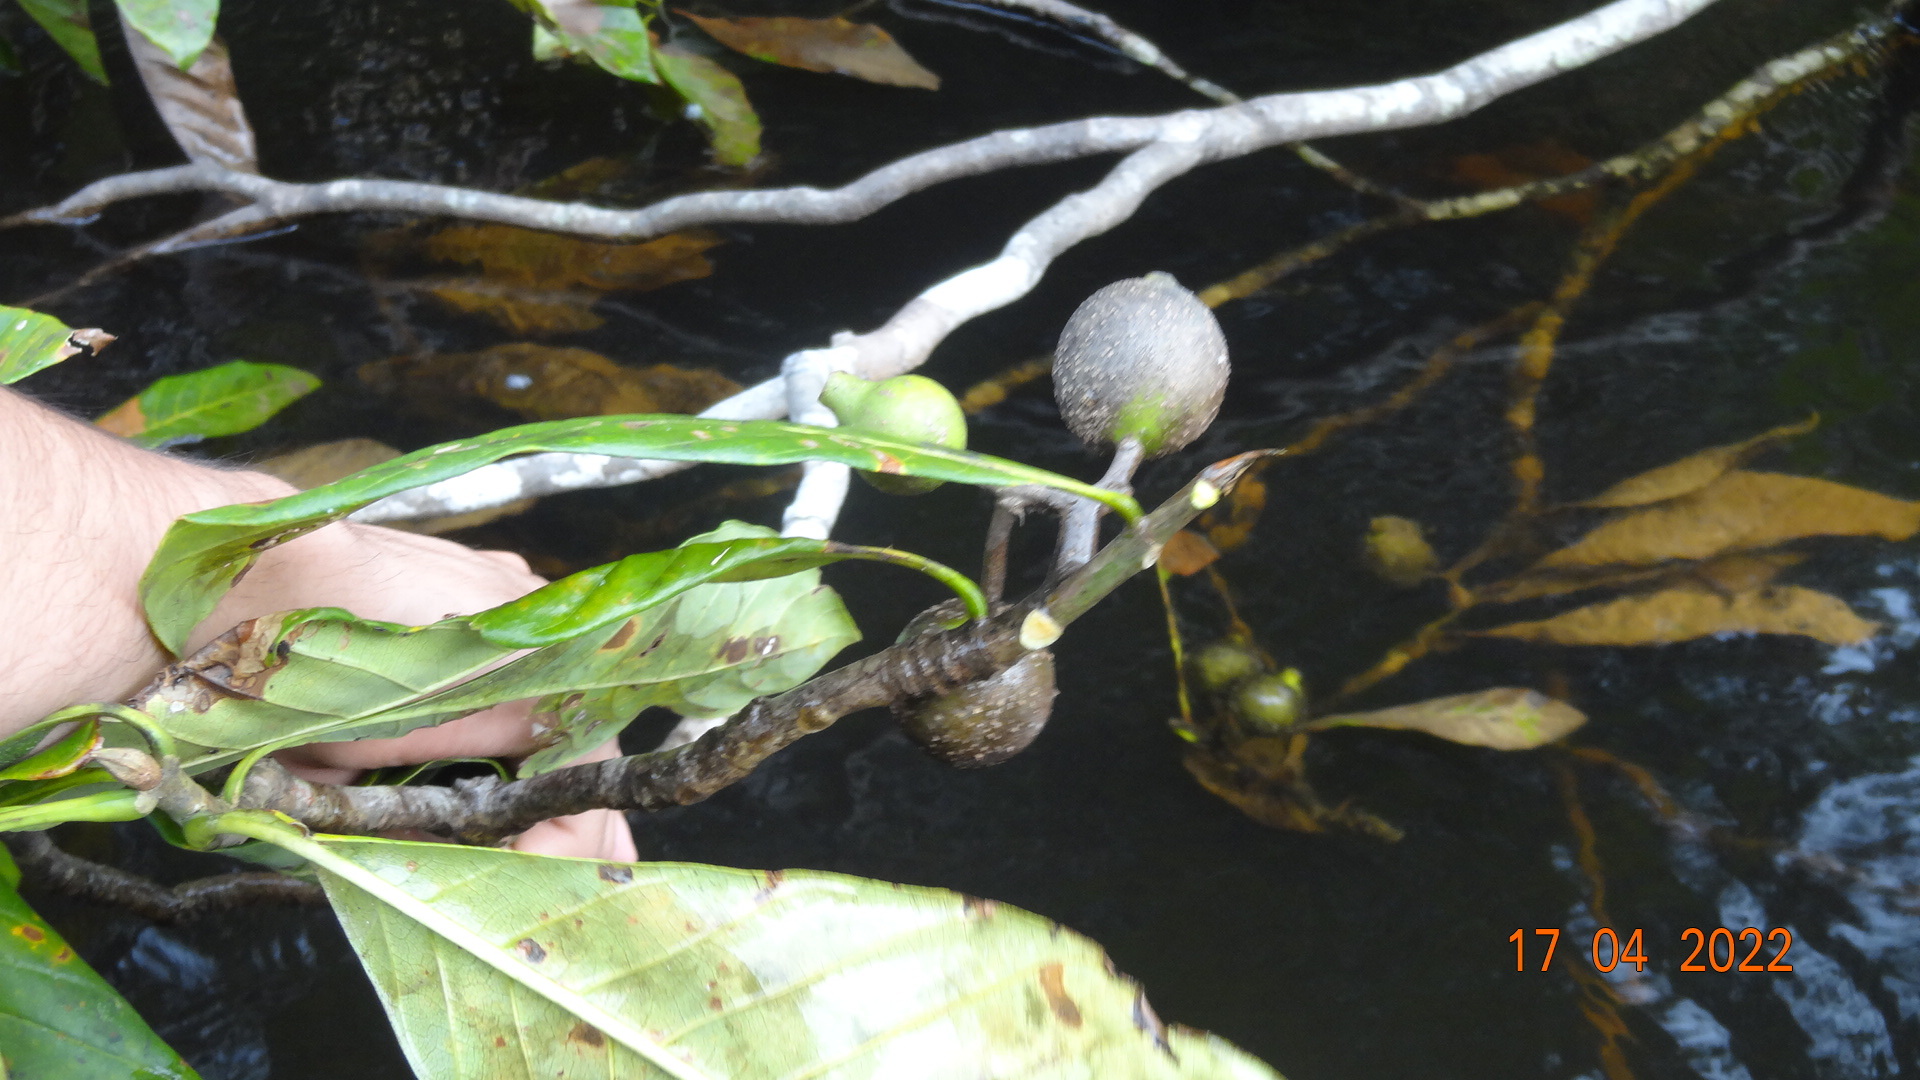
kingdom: Plantae
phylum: Tracheophyta
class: Magnoliopsida
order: Gentianales
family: Rubiaceae
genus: Genipa
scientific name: Genipa americana
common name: Genipap
